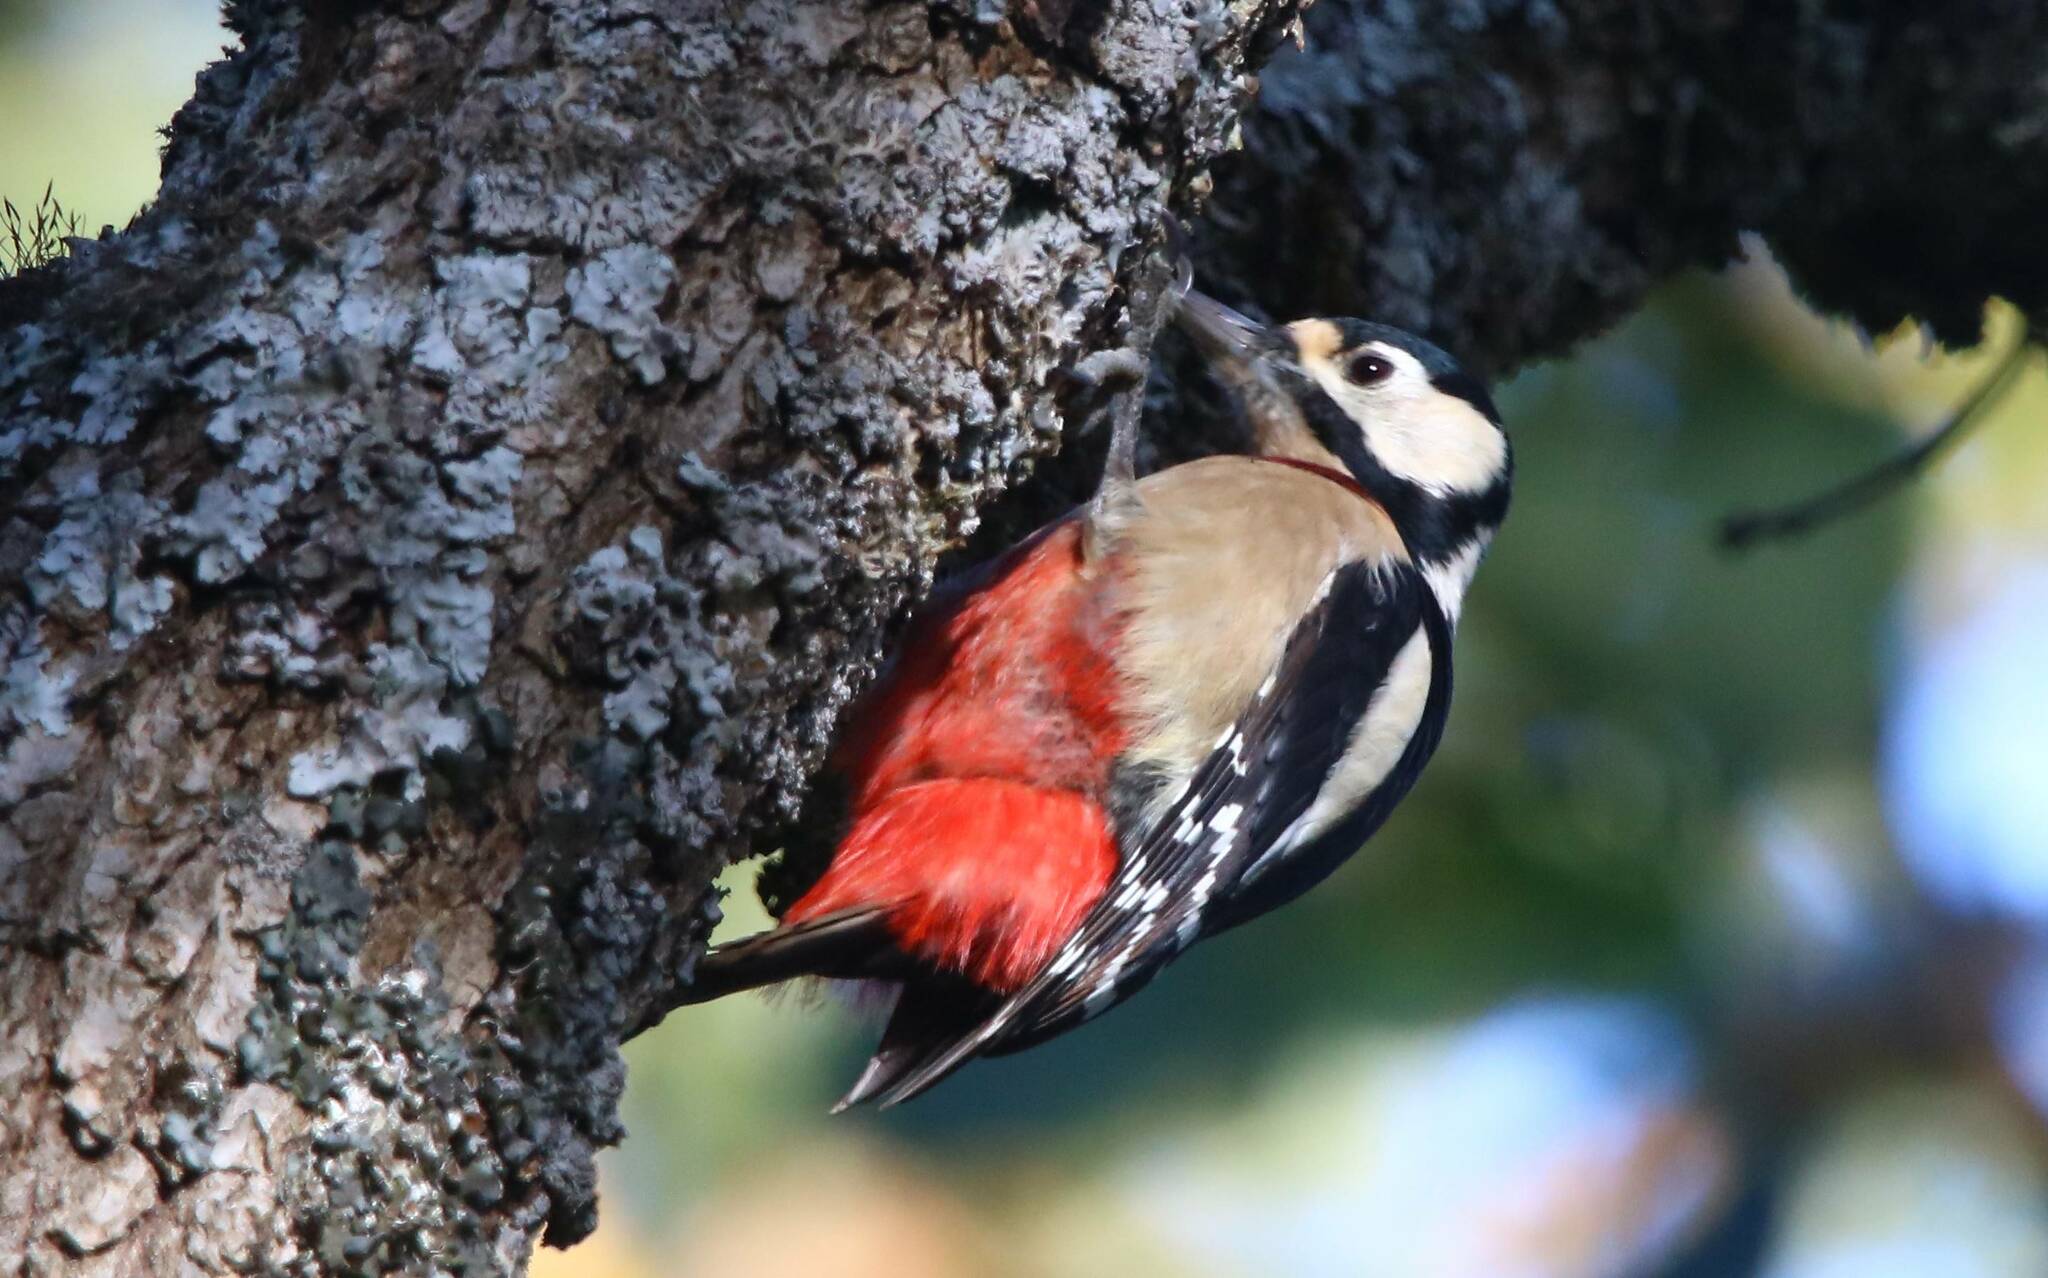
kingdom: Animalia
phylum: Chordata
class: Aves
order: Piciformes
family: Picidae
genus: Dendrocopos
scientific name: Dendrocopos major
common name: Great spotted woodpecker
